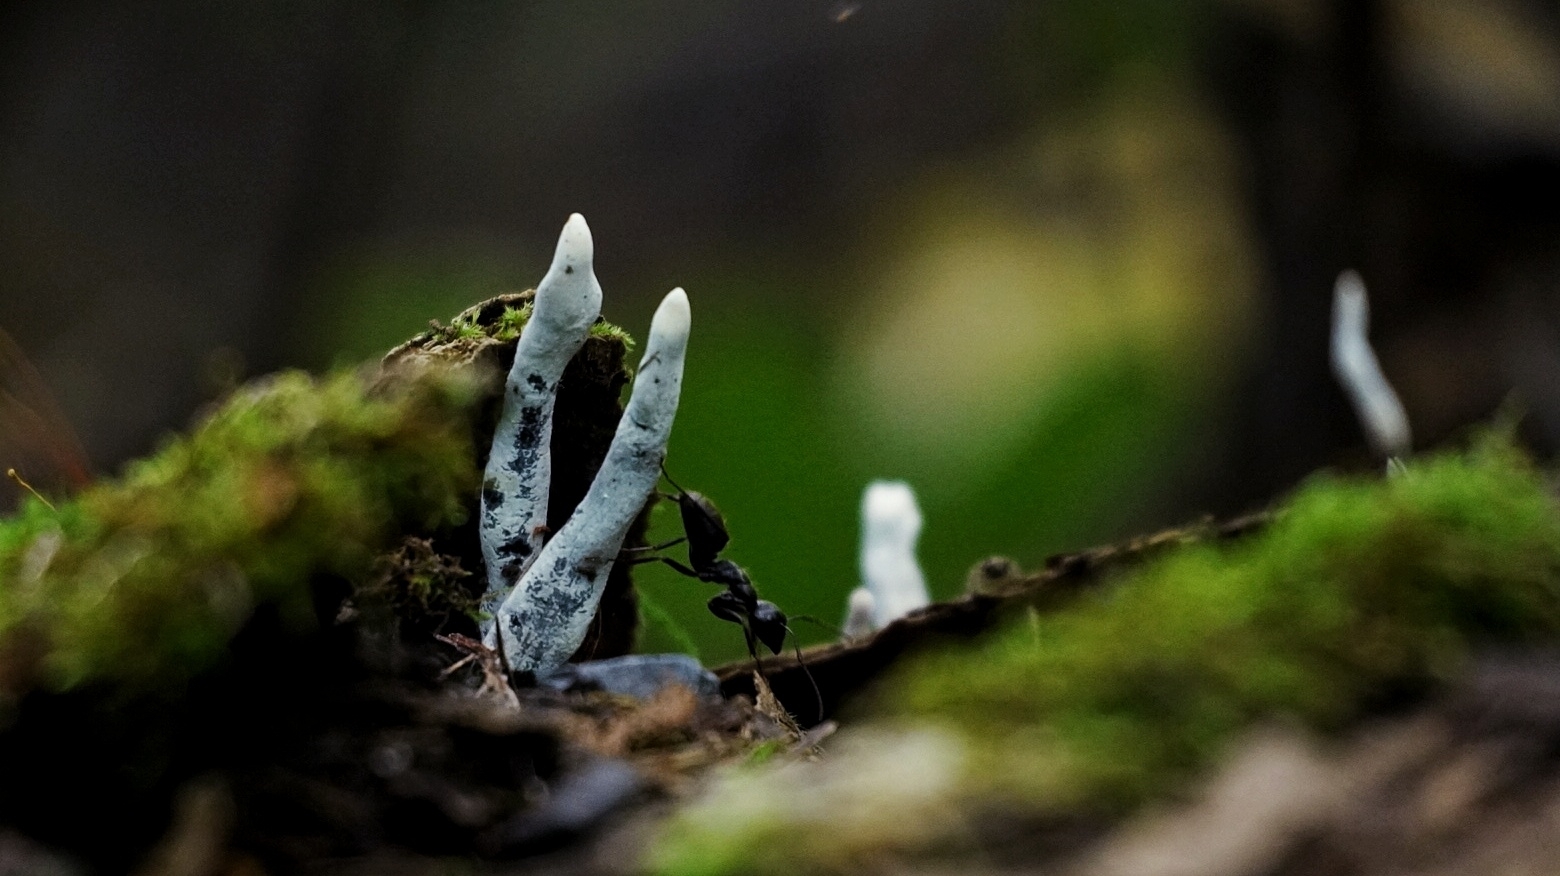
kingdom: Fungi
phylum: Ascomycota
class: Sordariomycetes
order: Xylariales
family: Xylariaceae
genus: Xylaria
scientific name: Xylaria polymorpha
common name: Dead man's fingers
